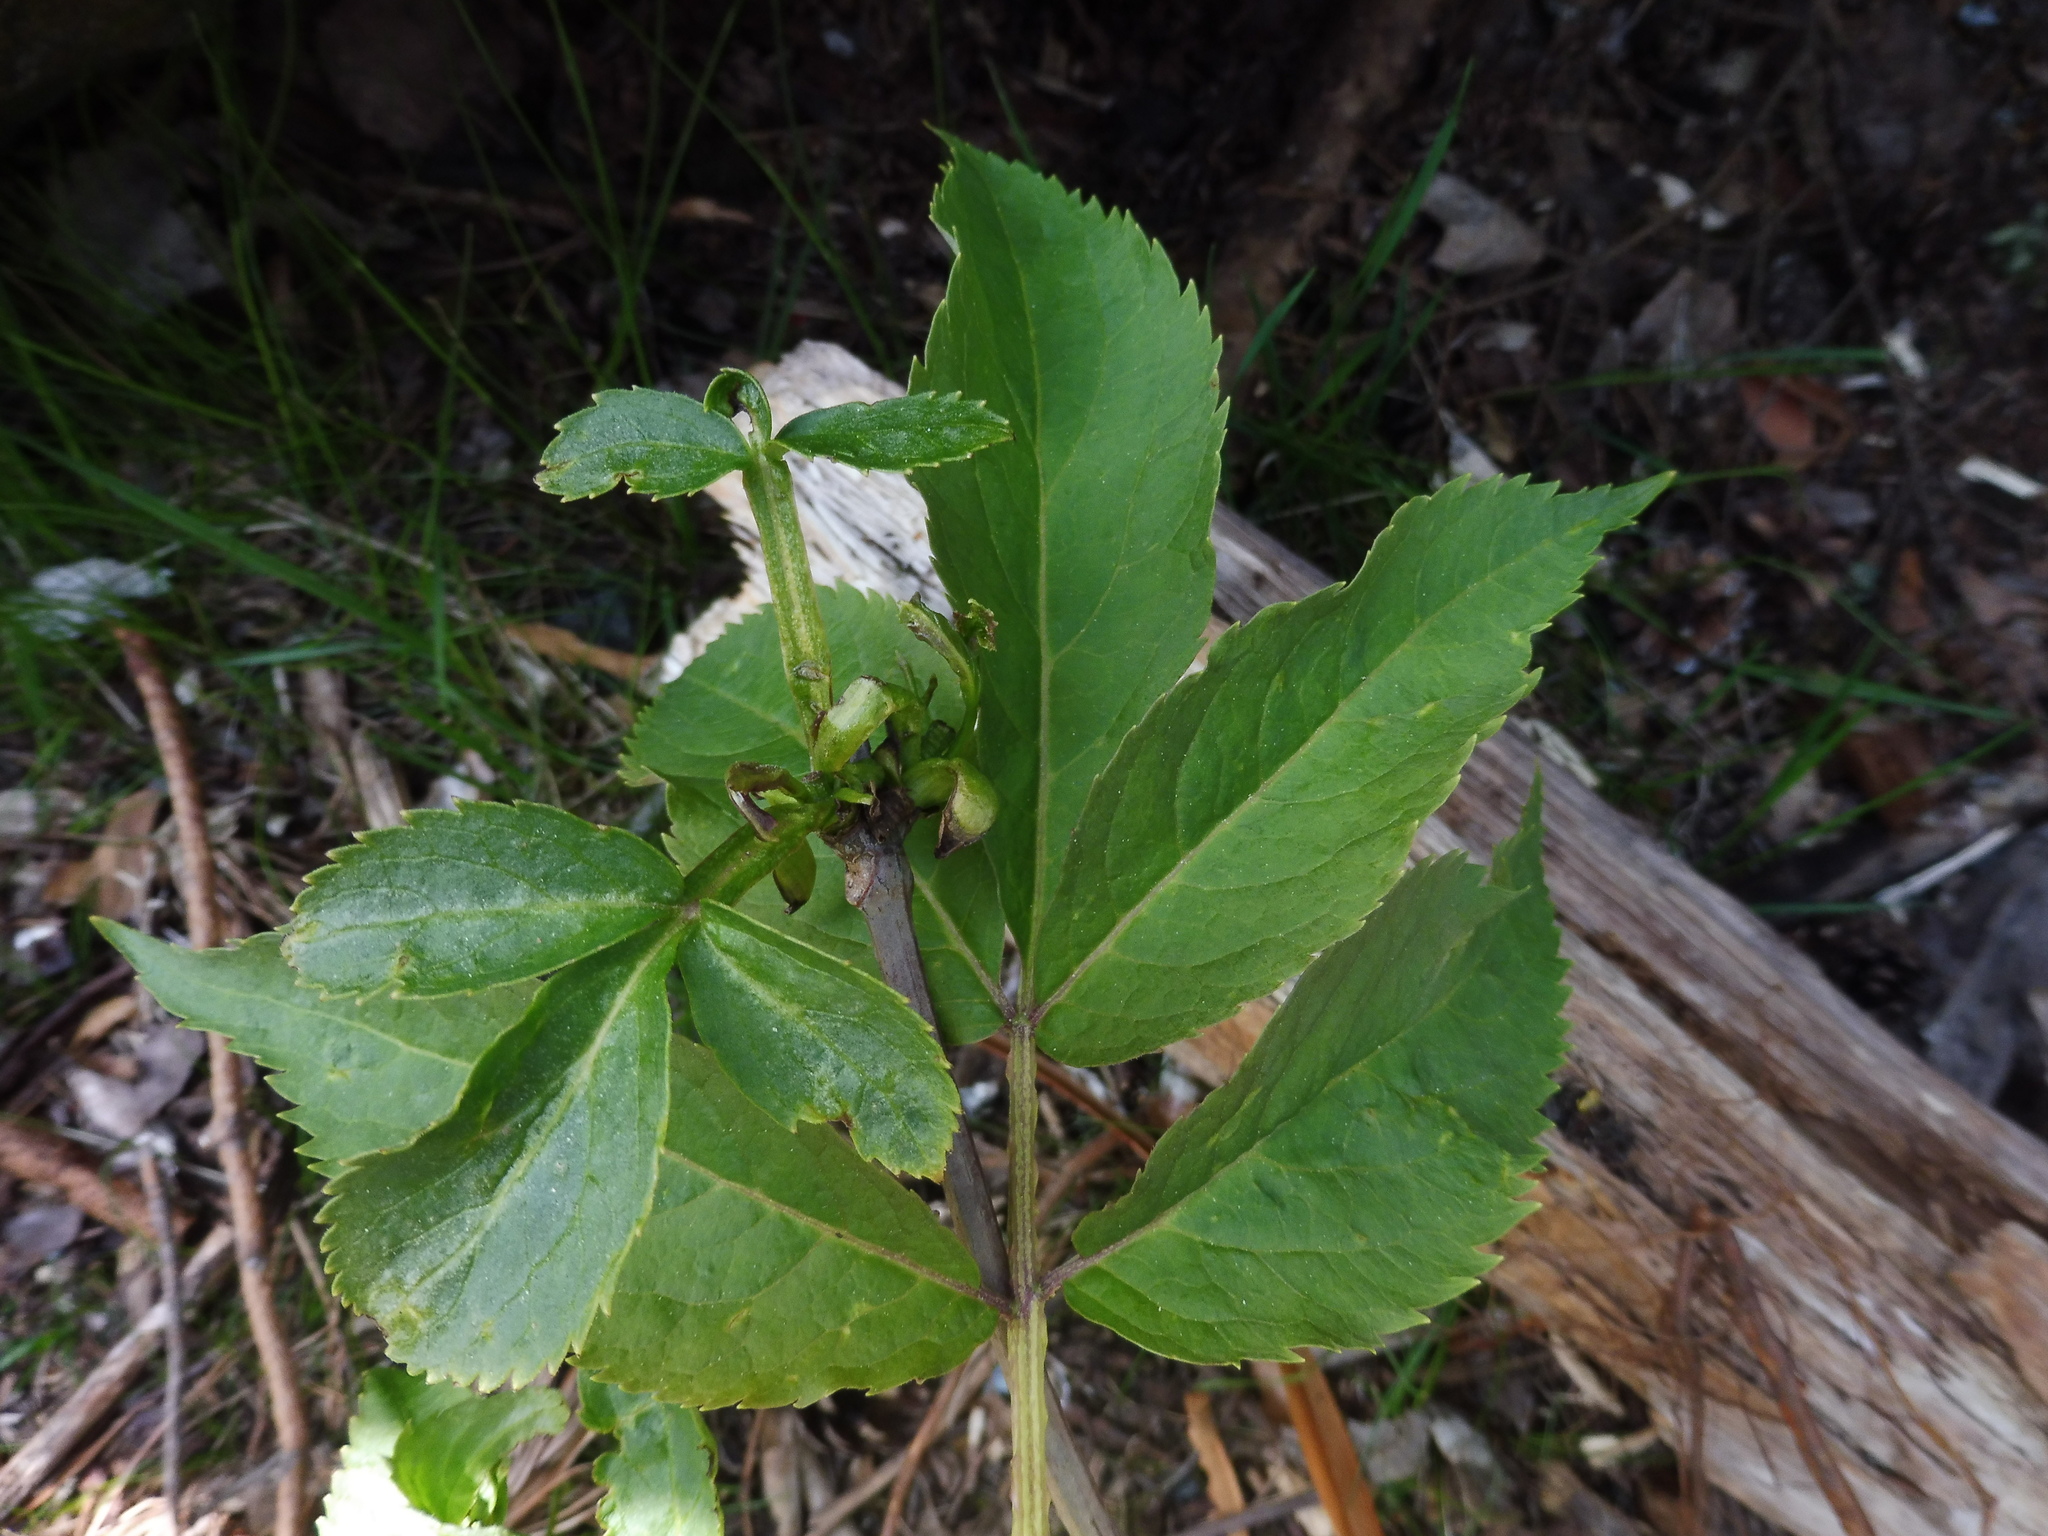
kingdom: Plantae
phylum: Tracheophyta
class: Magnoliopsida
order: Dipsacales
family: Viburnaceae
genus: Sambucus
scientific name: Sambucus racemosa
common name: Red-berried elder
